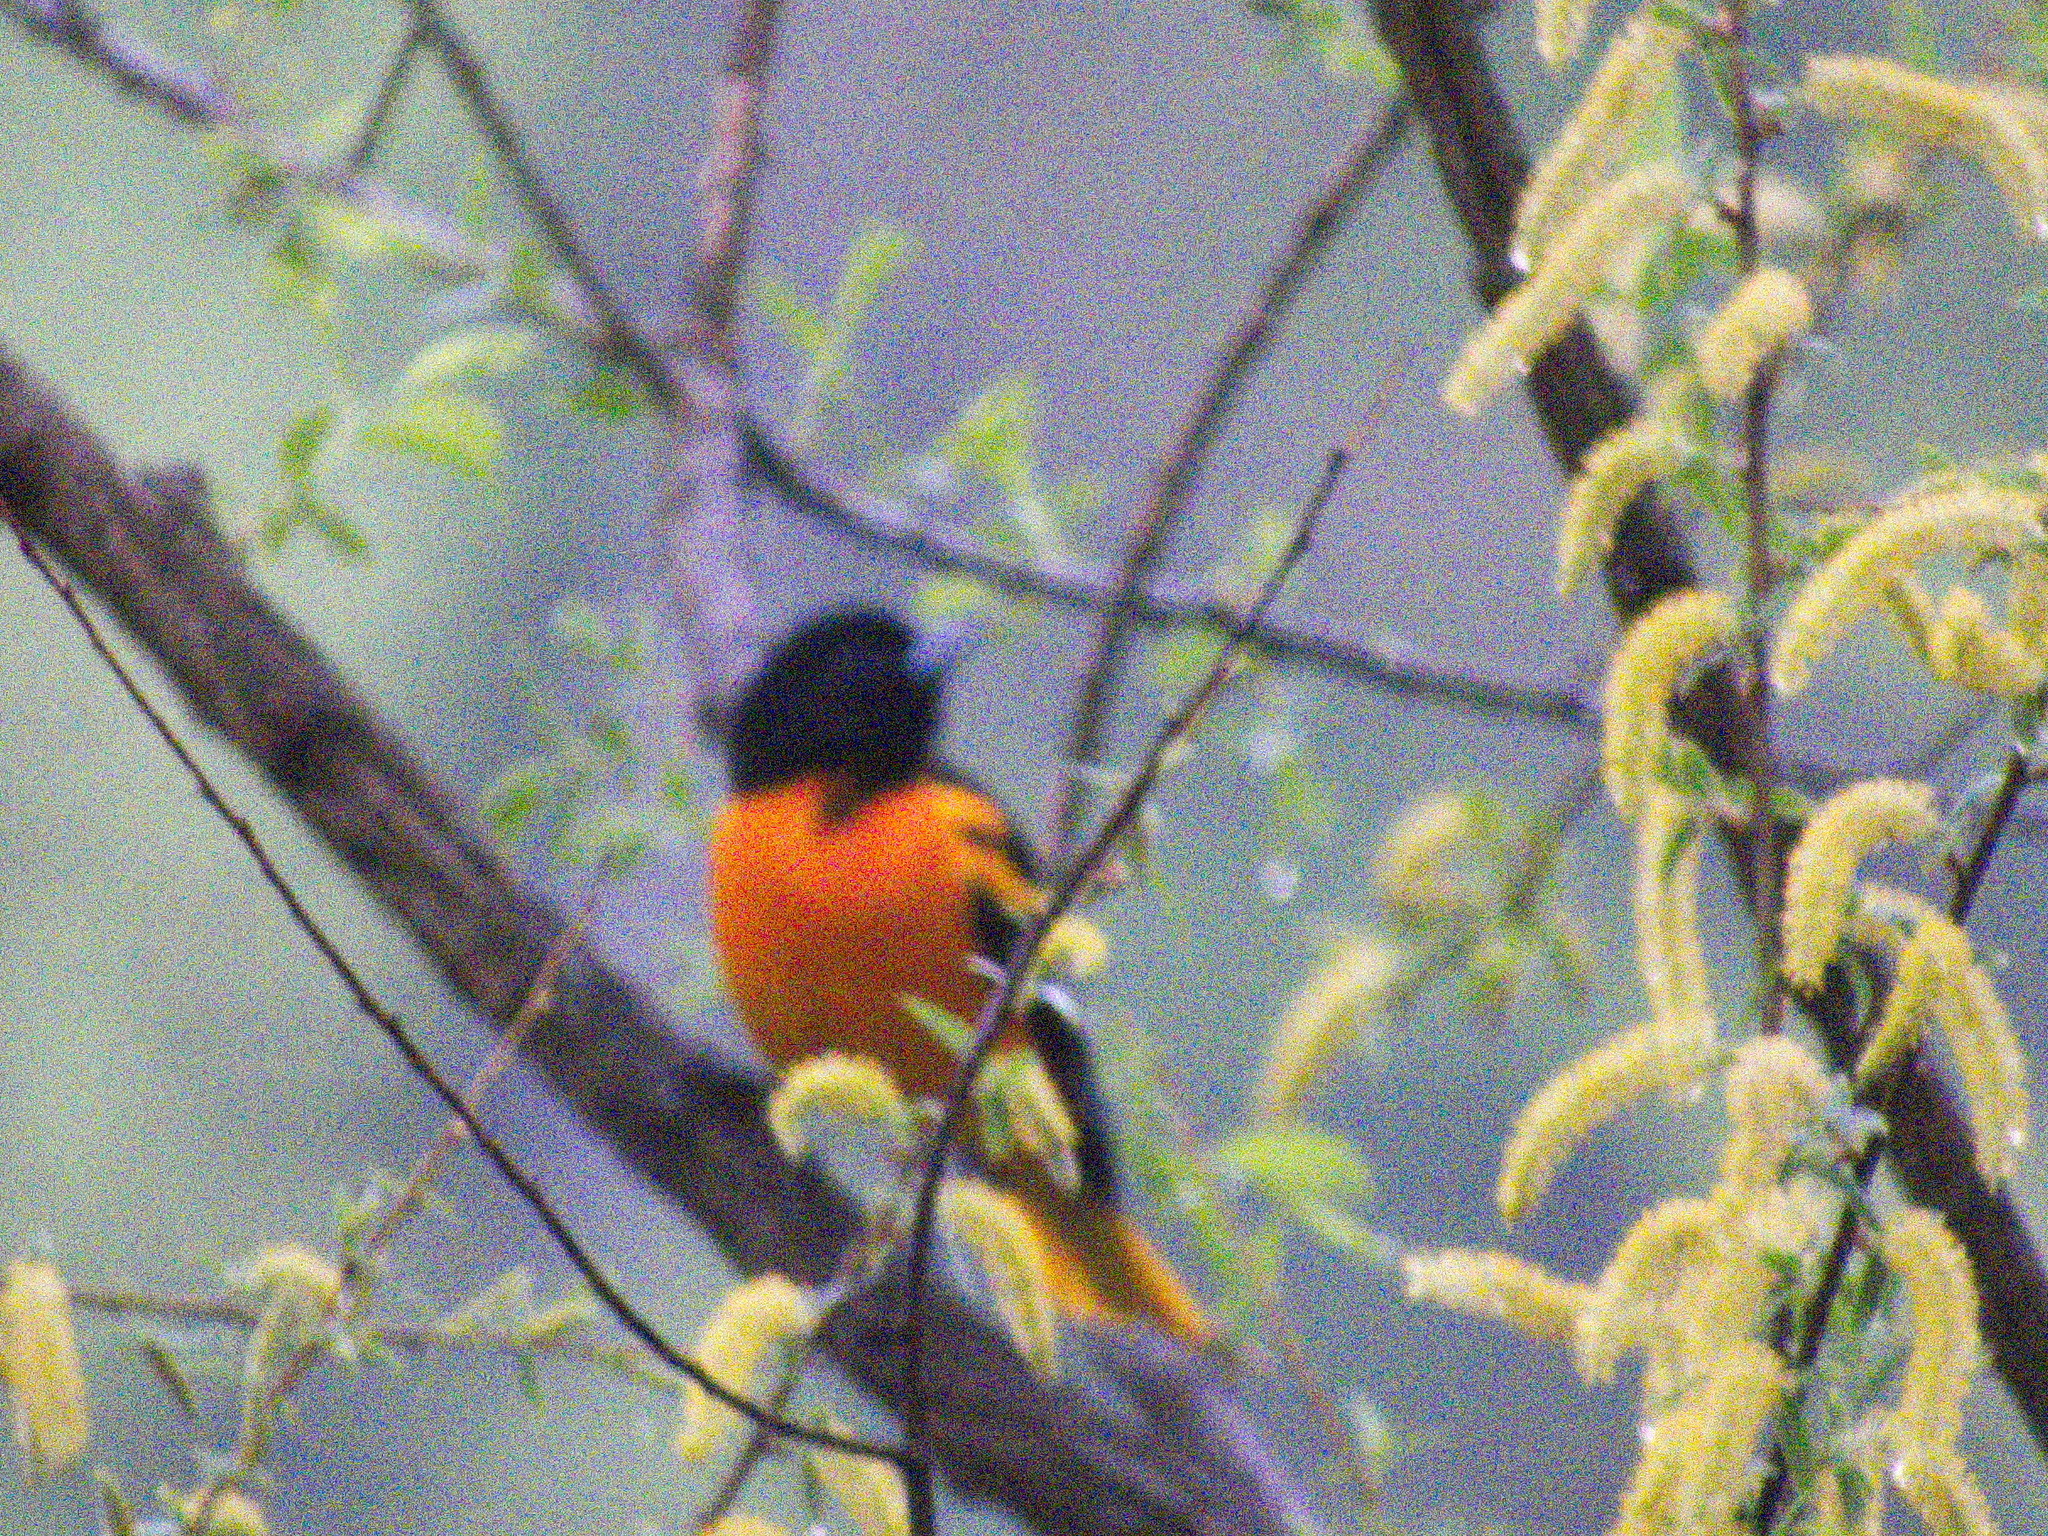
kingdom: Animalia
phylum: Chordata
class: Aves
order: Passeriformes
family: Icteridae
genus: Icterus
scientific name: Icterus galbula
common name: Baltimore oriole
